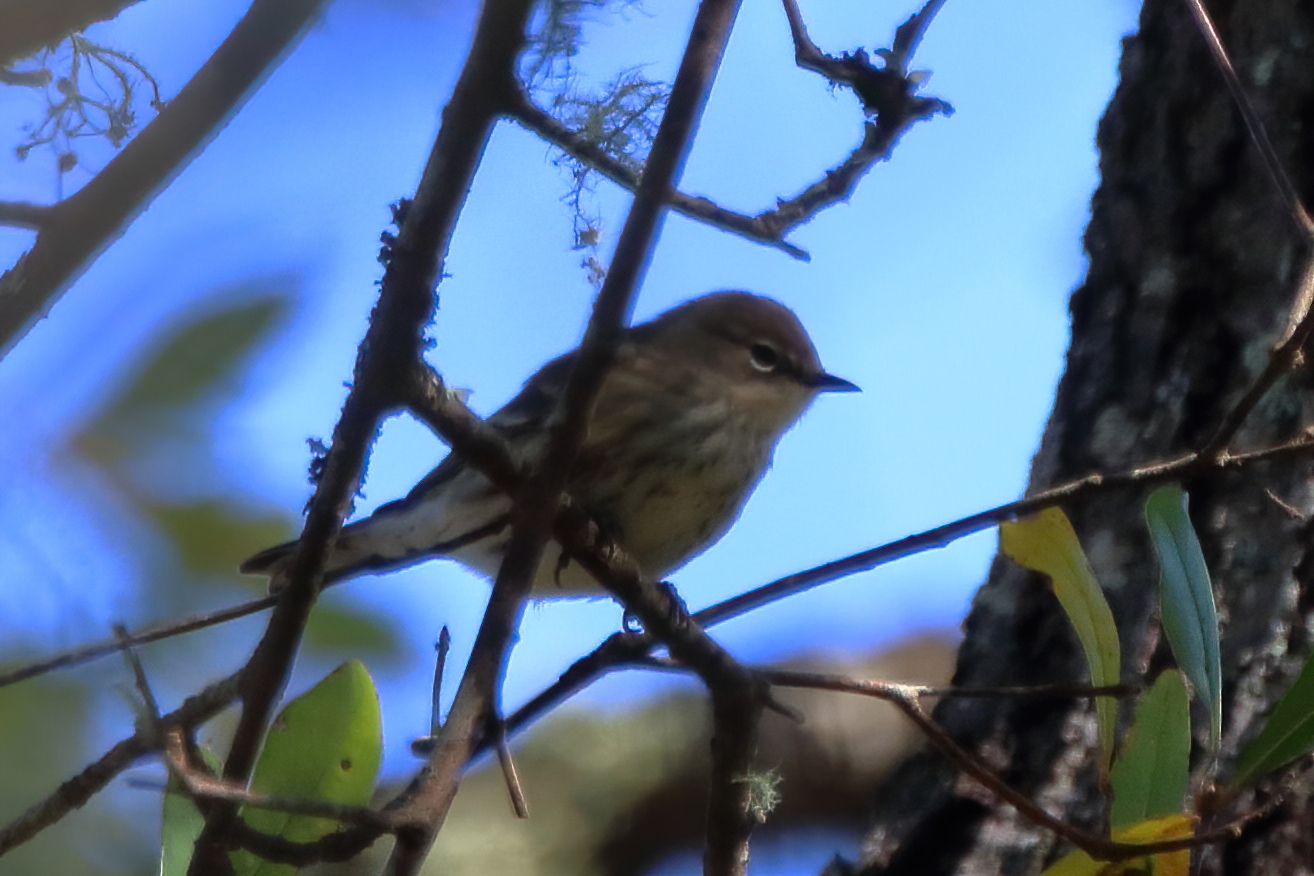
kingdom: Animalia
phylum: Chordata
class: Aves
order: Passeriformes
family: Parulidae
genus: Setophaga
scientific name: Setophaga coronata
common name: Myrtle warbler
